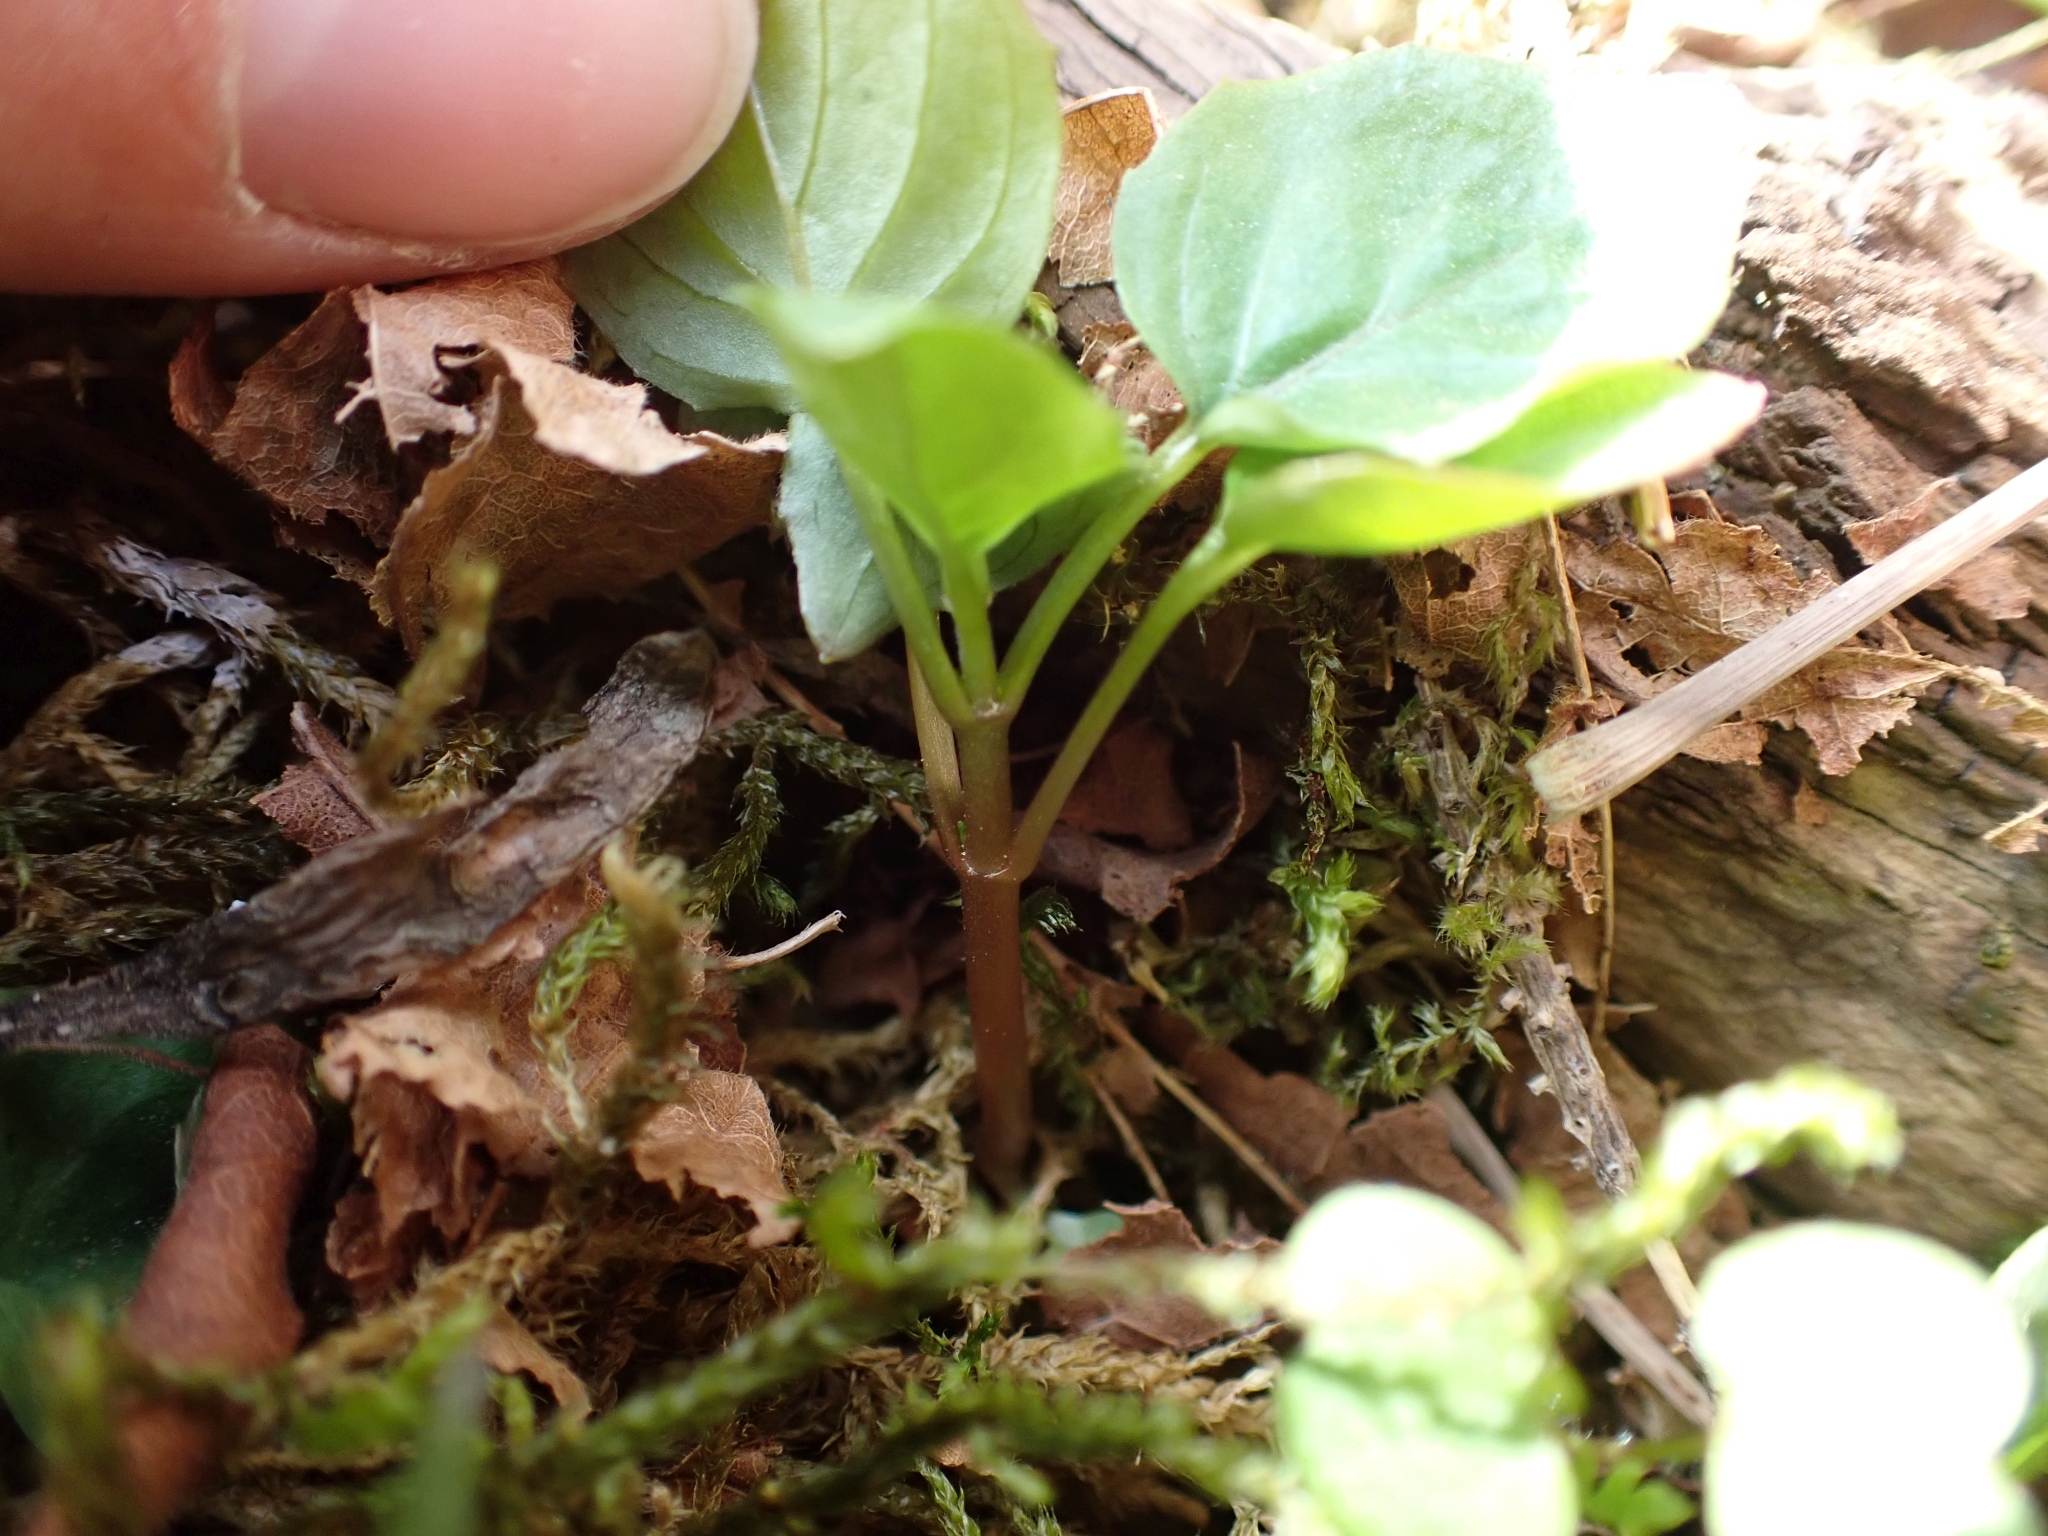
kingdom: Plantae
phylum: Tracheophyta
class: Magnoliopsida
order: Myrtales
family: Onagraceae
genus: Circaea
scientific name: Circaea alpina
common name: Alpine enchanter's-nightshade
